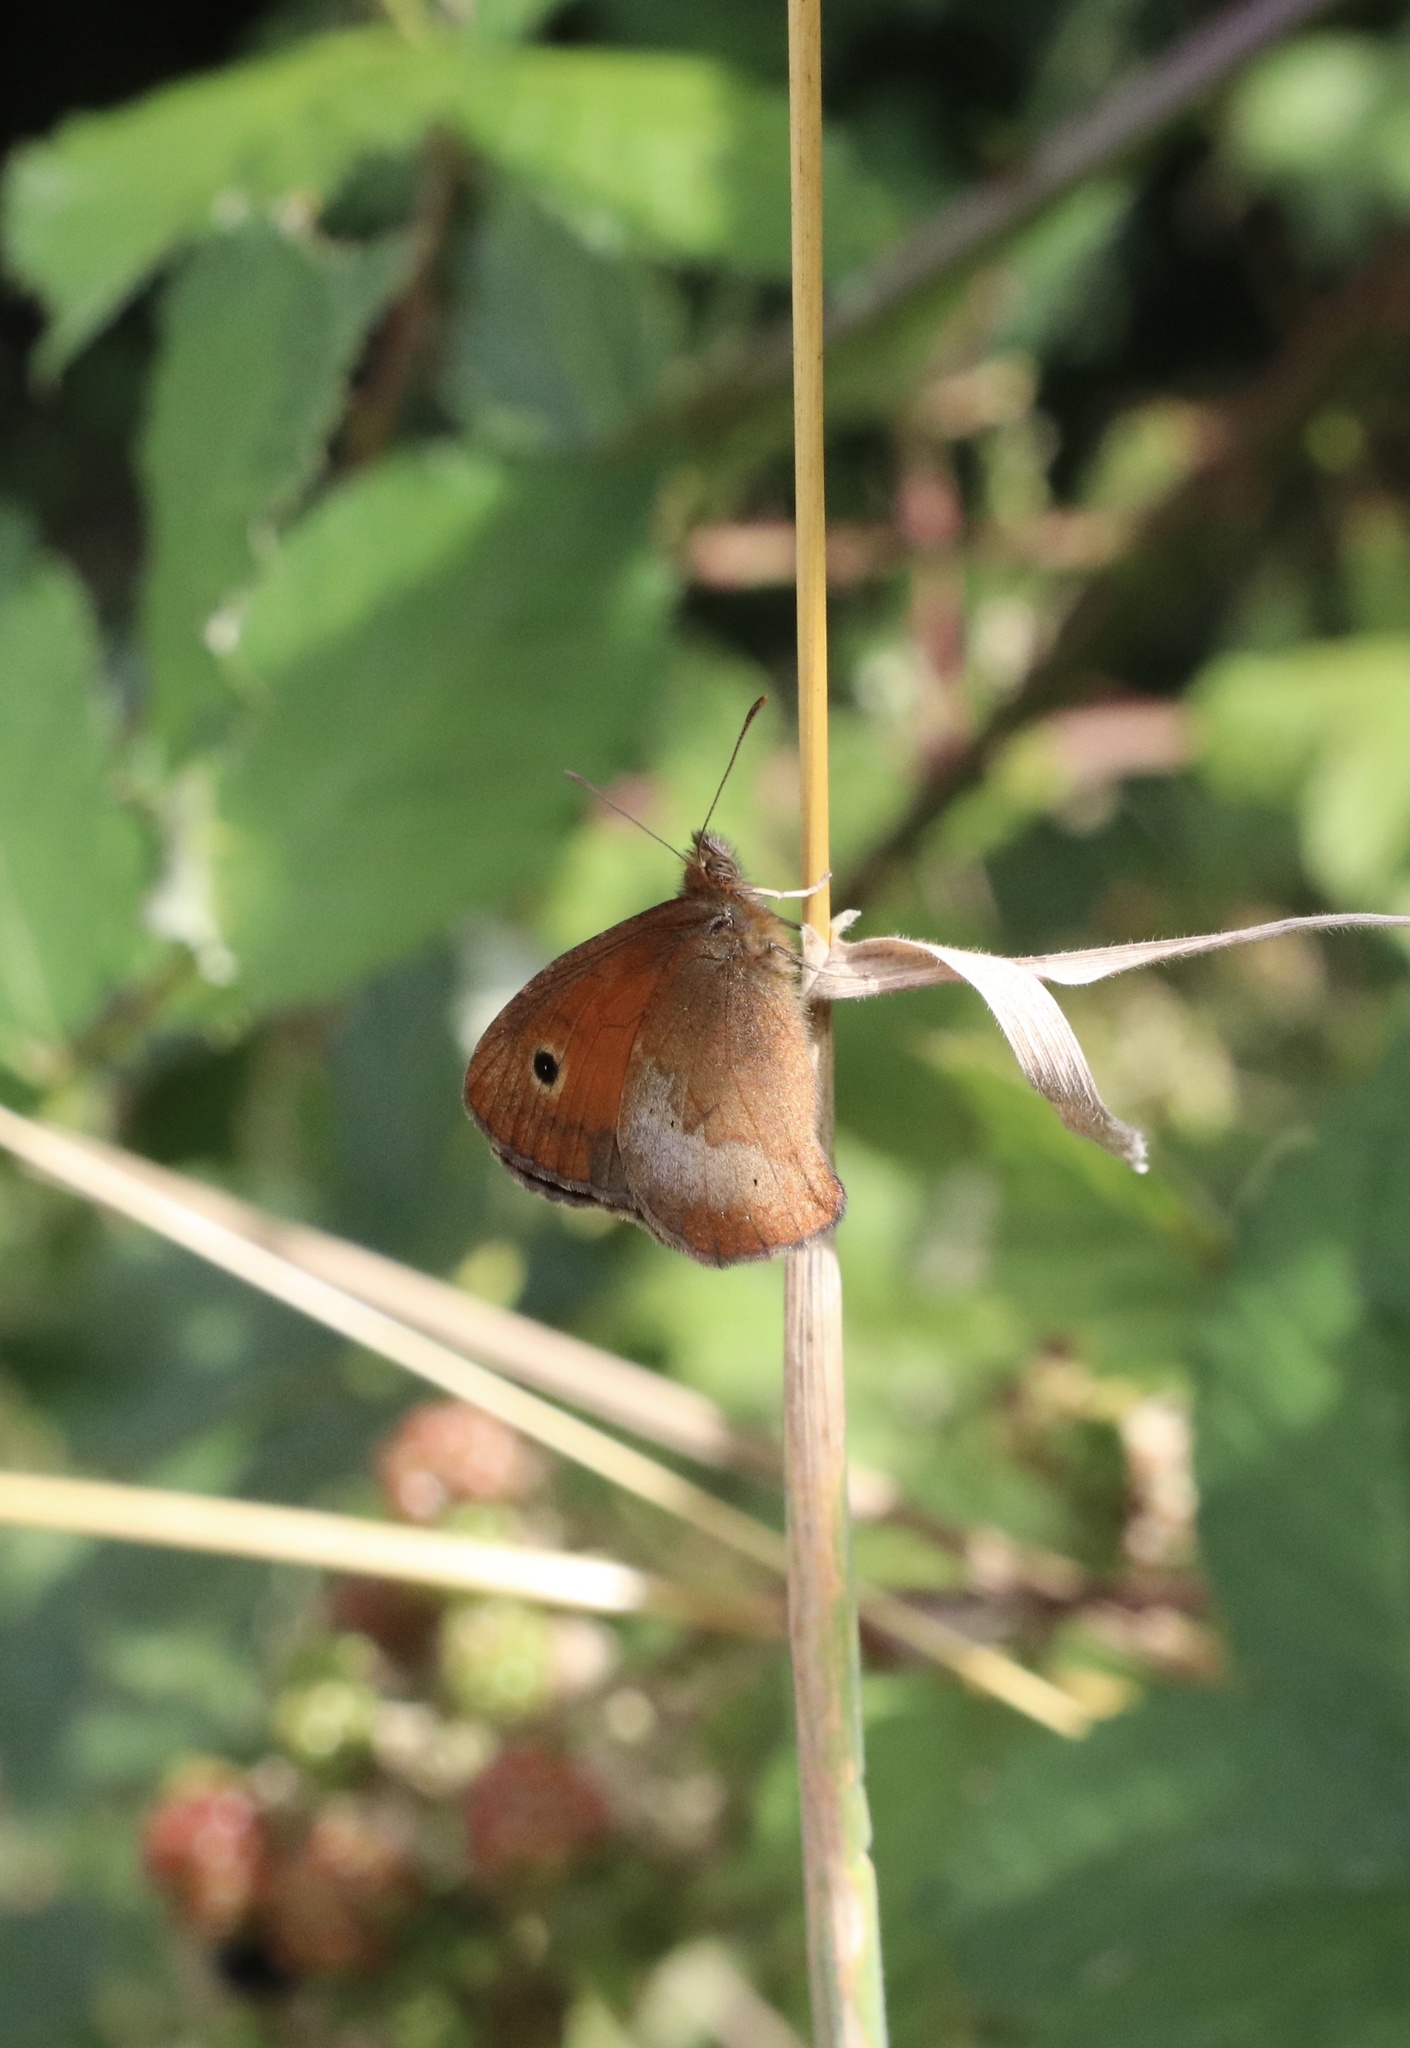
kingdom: Animalia
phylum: Arthropoda
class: Insecta
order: Lepidoptera
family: Nymphalidae
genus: Neomaenas
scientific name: Neomaenas poliozona
